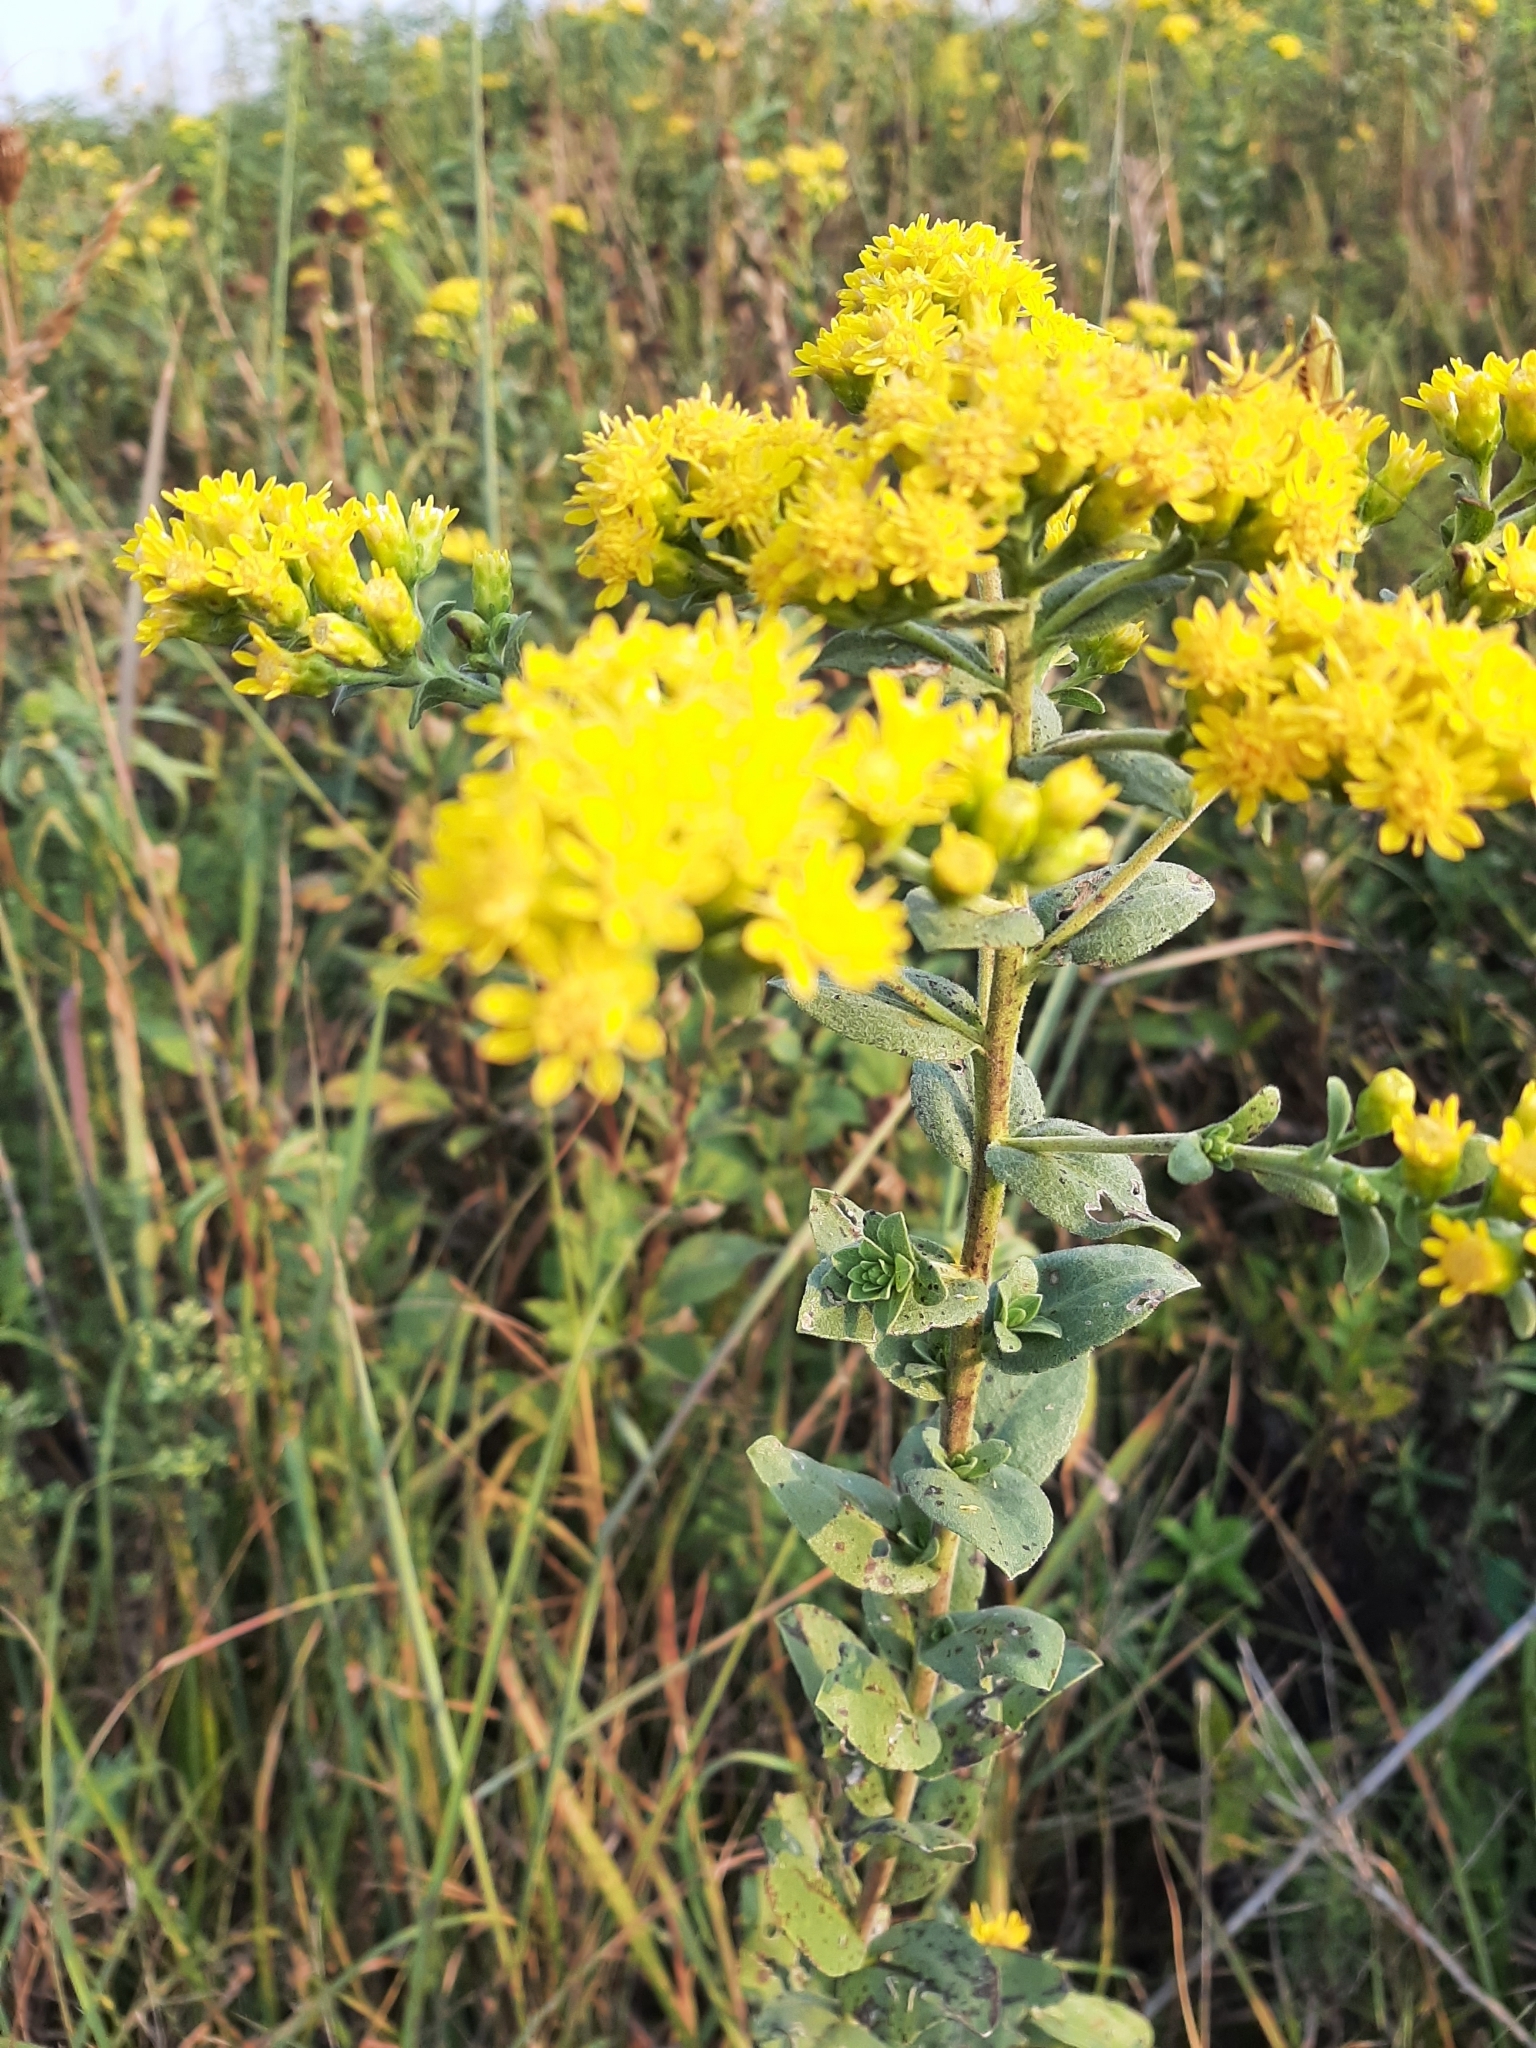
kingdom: Plantae
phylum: Tracheophyta
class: Magnoliopsida
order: Asterales
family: Asteraceae
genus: Solidago
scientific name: Solidago rigida
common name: Rigid goldenrod
